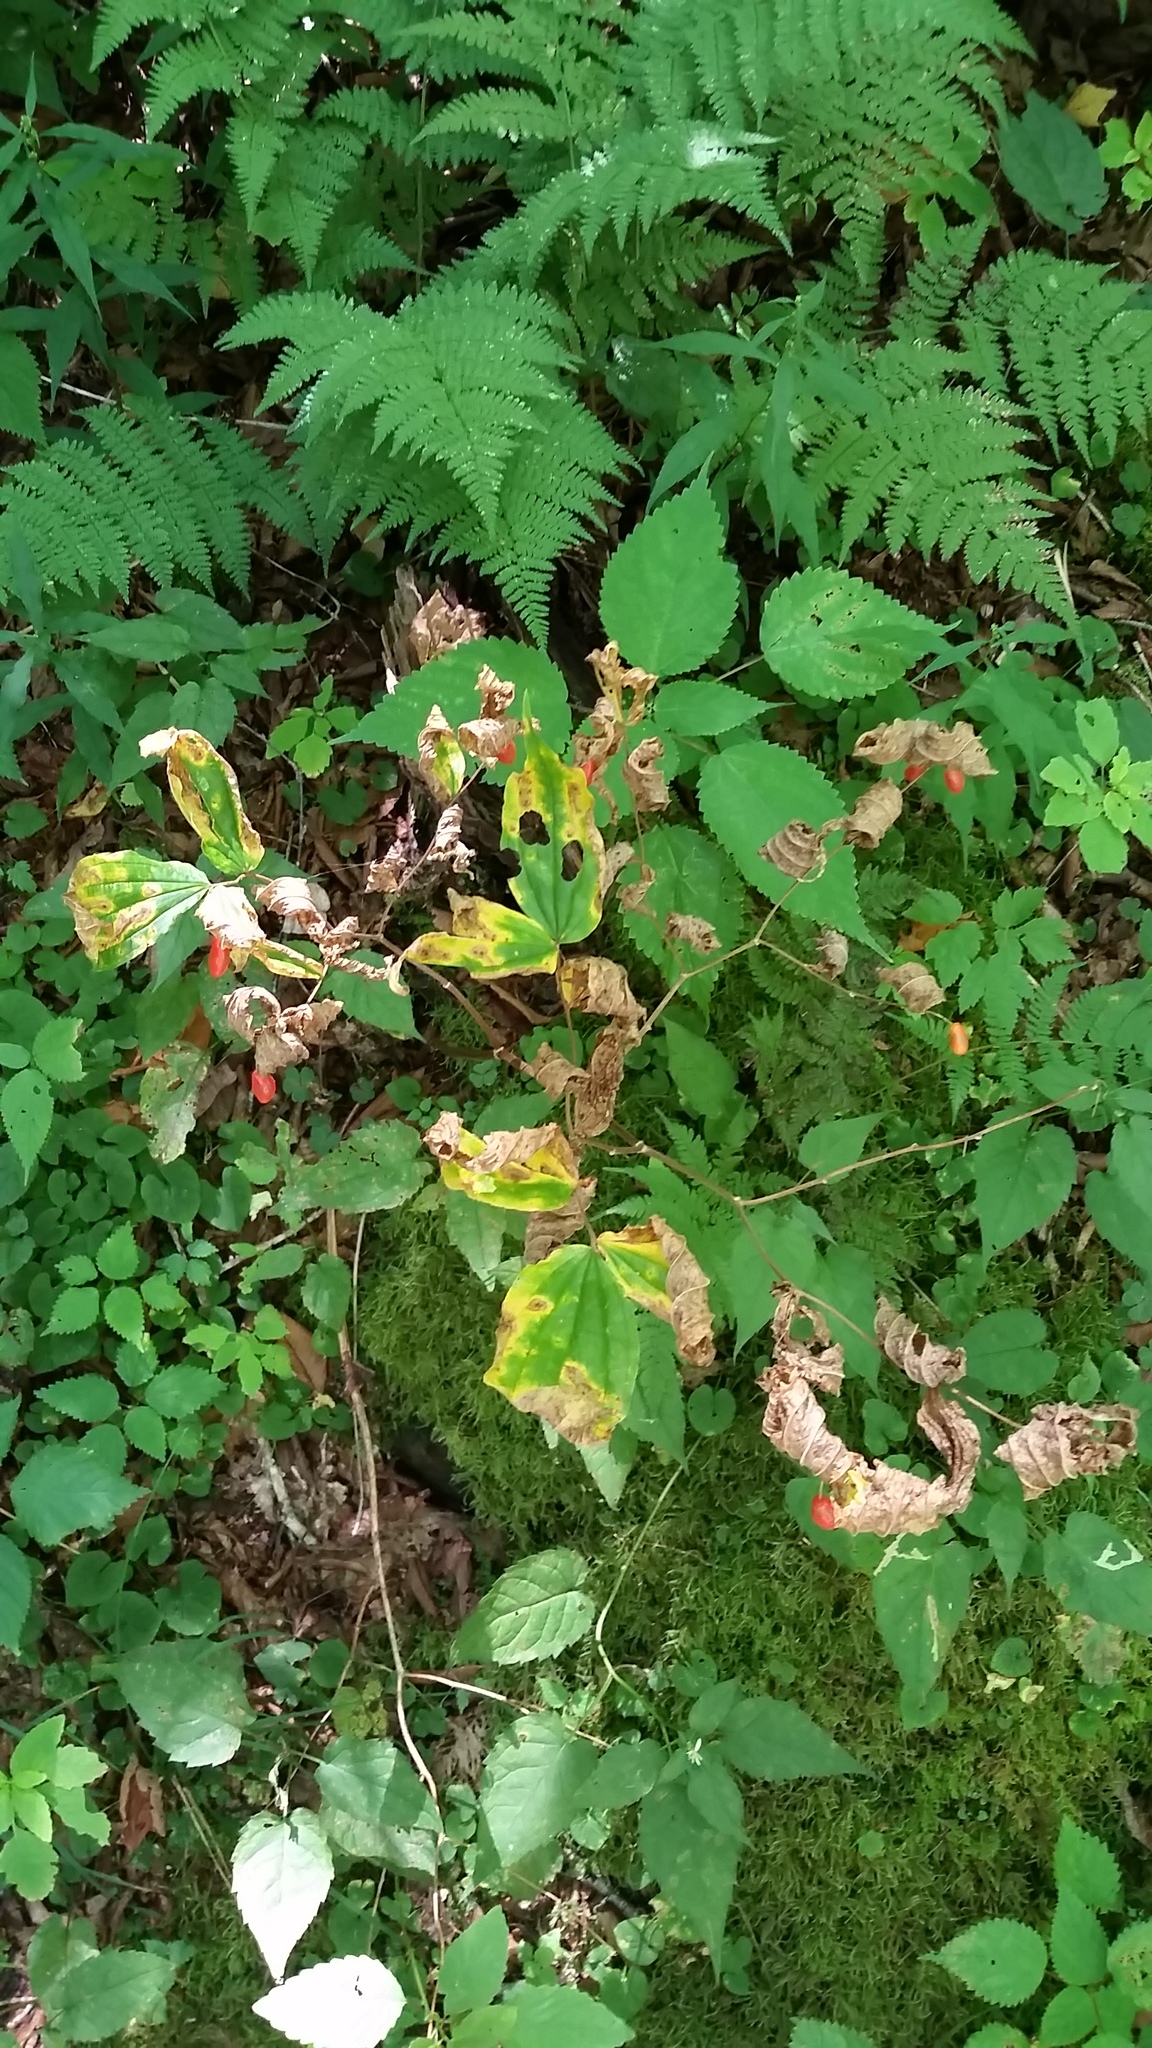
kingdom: Plantae
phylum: Tracheophyta
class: Liliopsida
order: Liliales
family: Liliaceae
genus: Prosartes
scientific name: Prosartes lanuginosa
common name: Hairy mandarin
